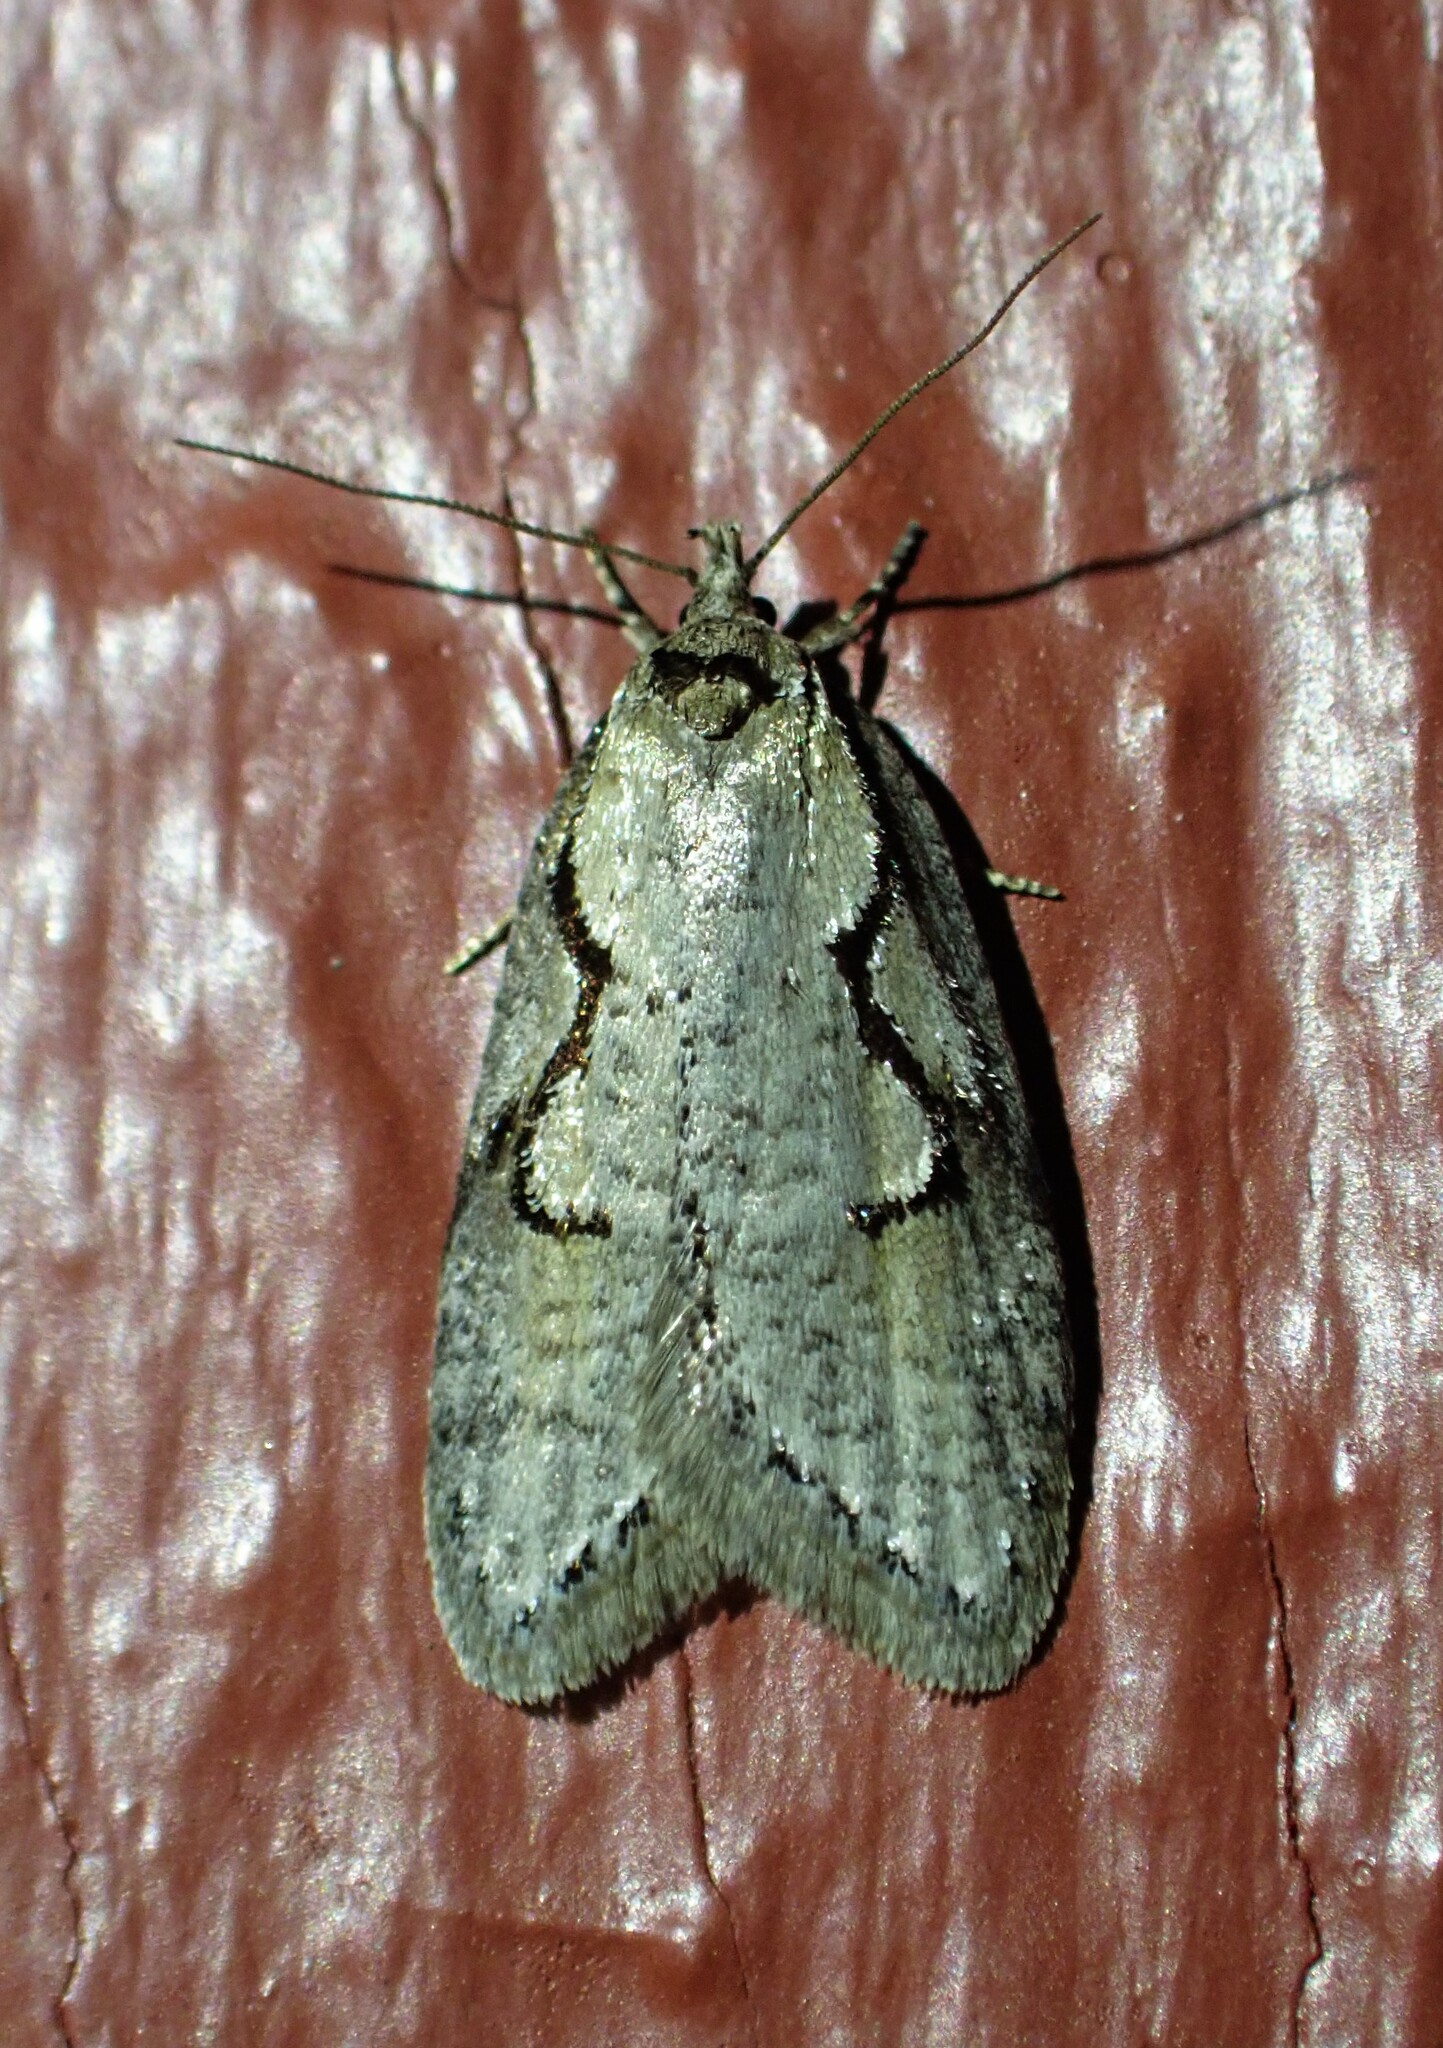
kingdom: Animalia
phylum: Arthropoda
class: Insecta
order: Lepidoptera
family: Depressariidae
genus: Semioscopis
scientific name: Semioscopis packardella
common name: Packard's concealer moth
